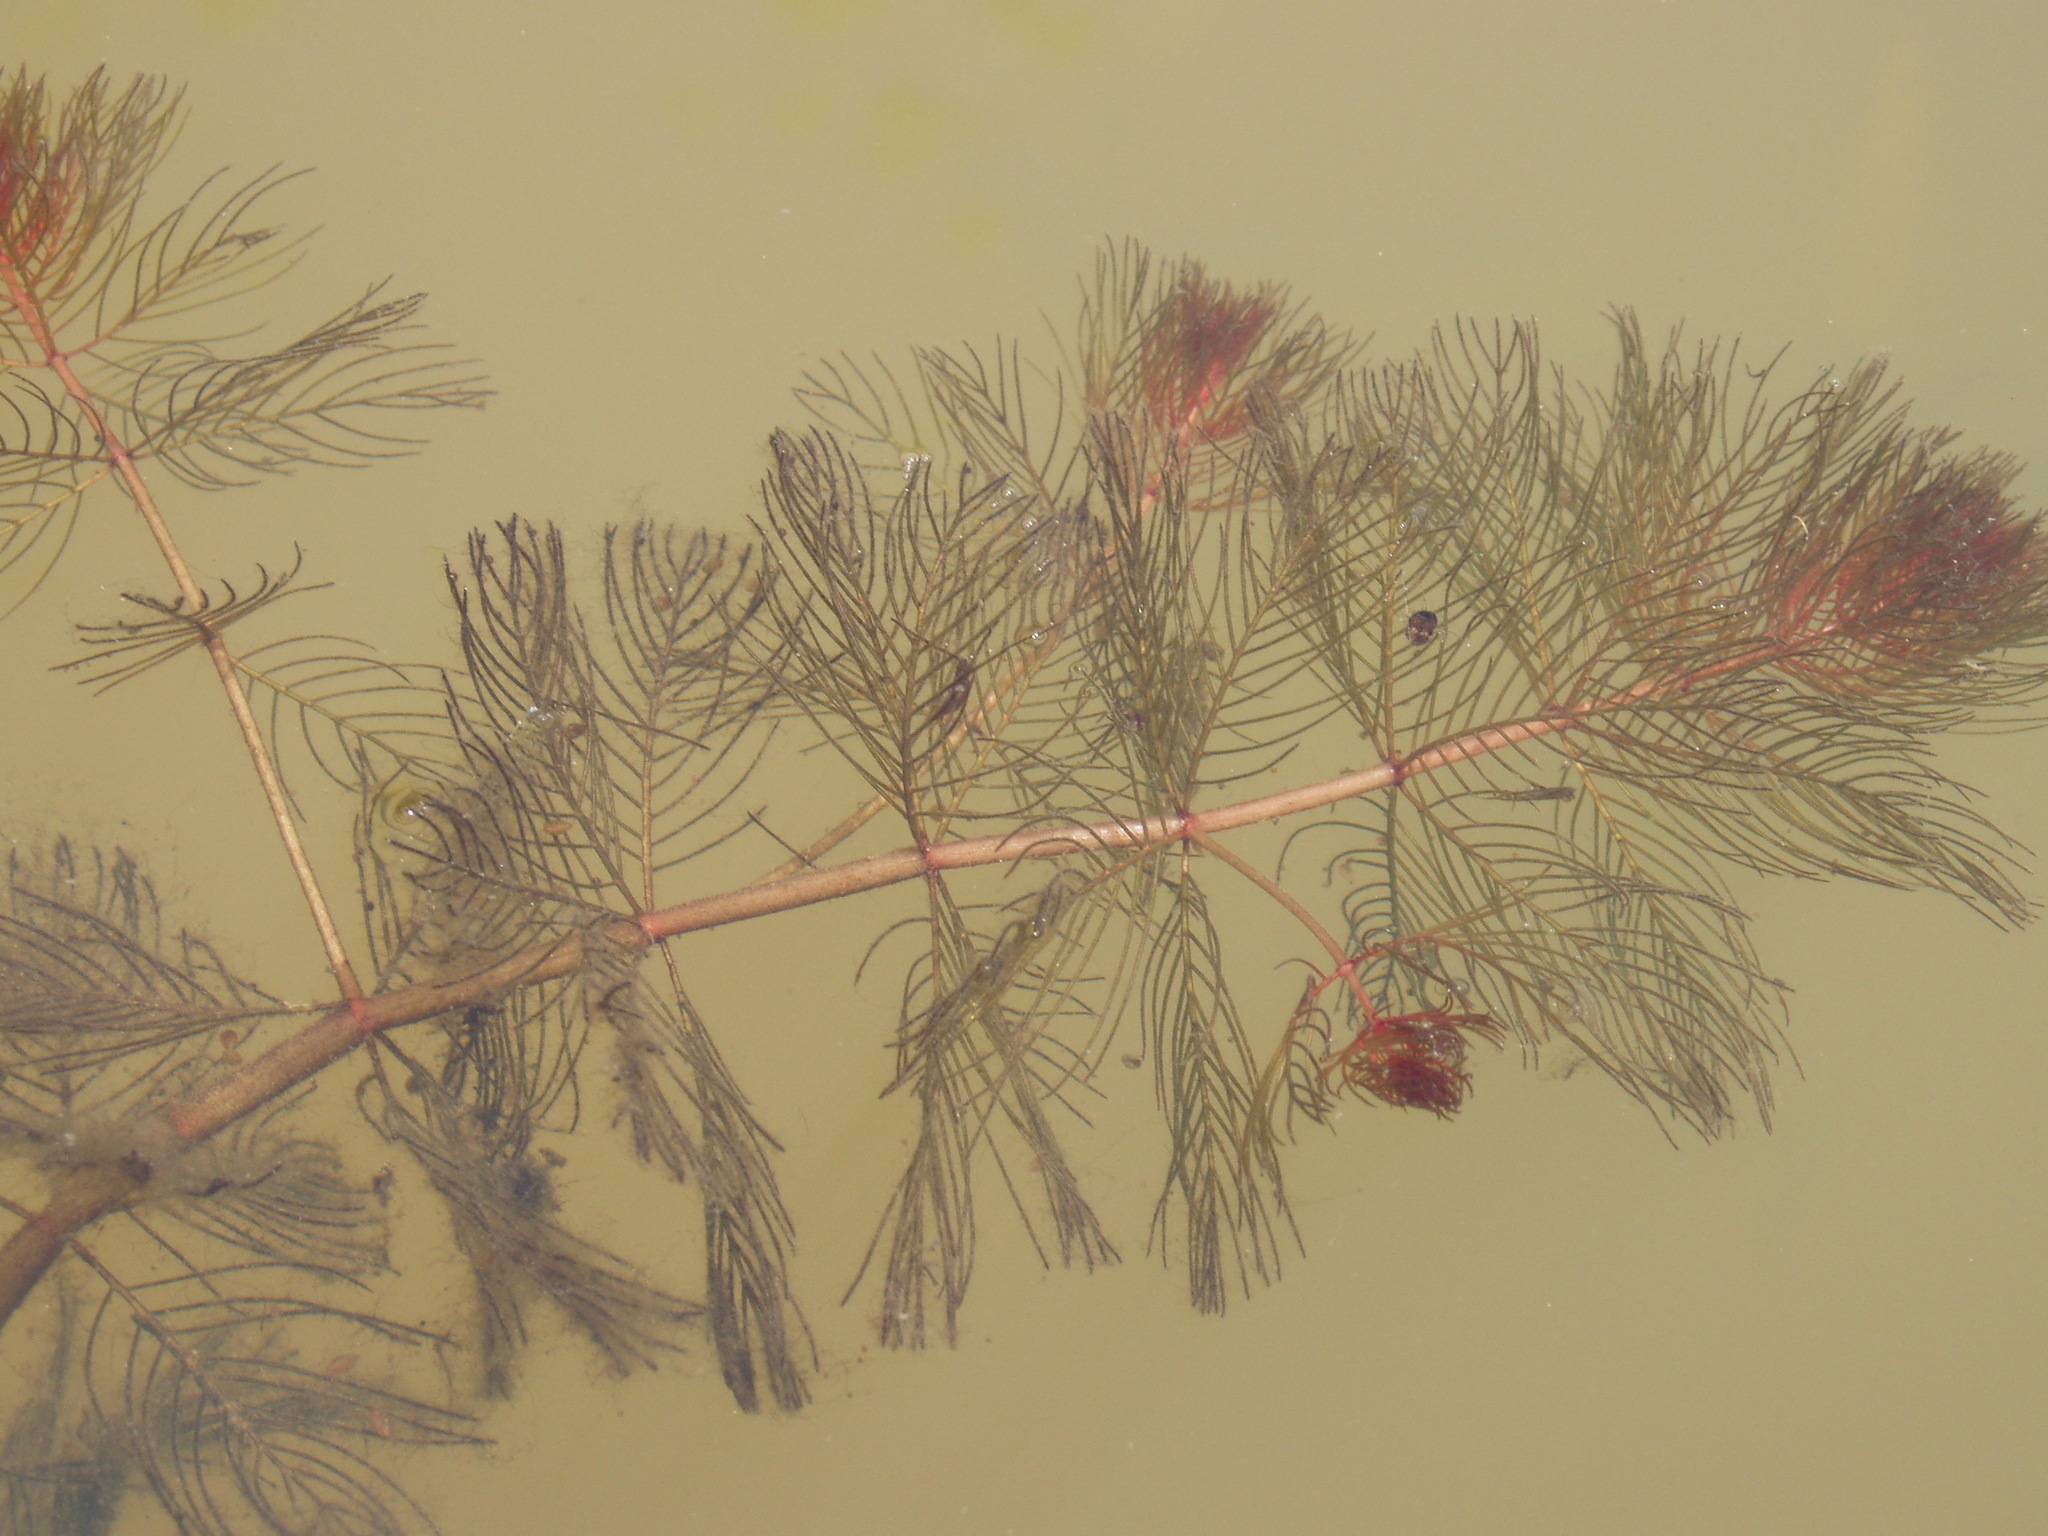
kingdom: Plantae
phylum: Tracheophyta
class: Magnoliopsida
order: Saxifragales
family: Haloragaceae
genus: Myriophyllum
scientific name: Myriophyllum spicatum
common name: Spiked water-milfoil
